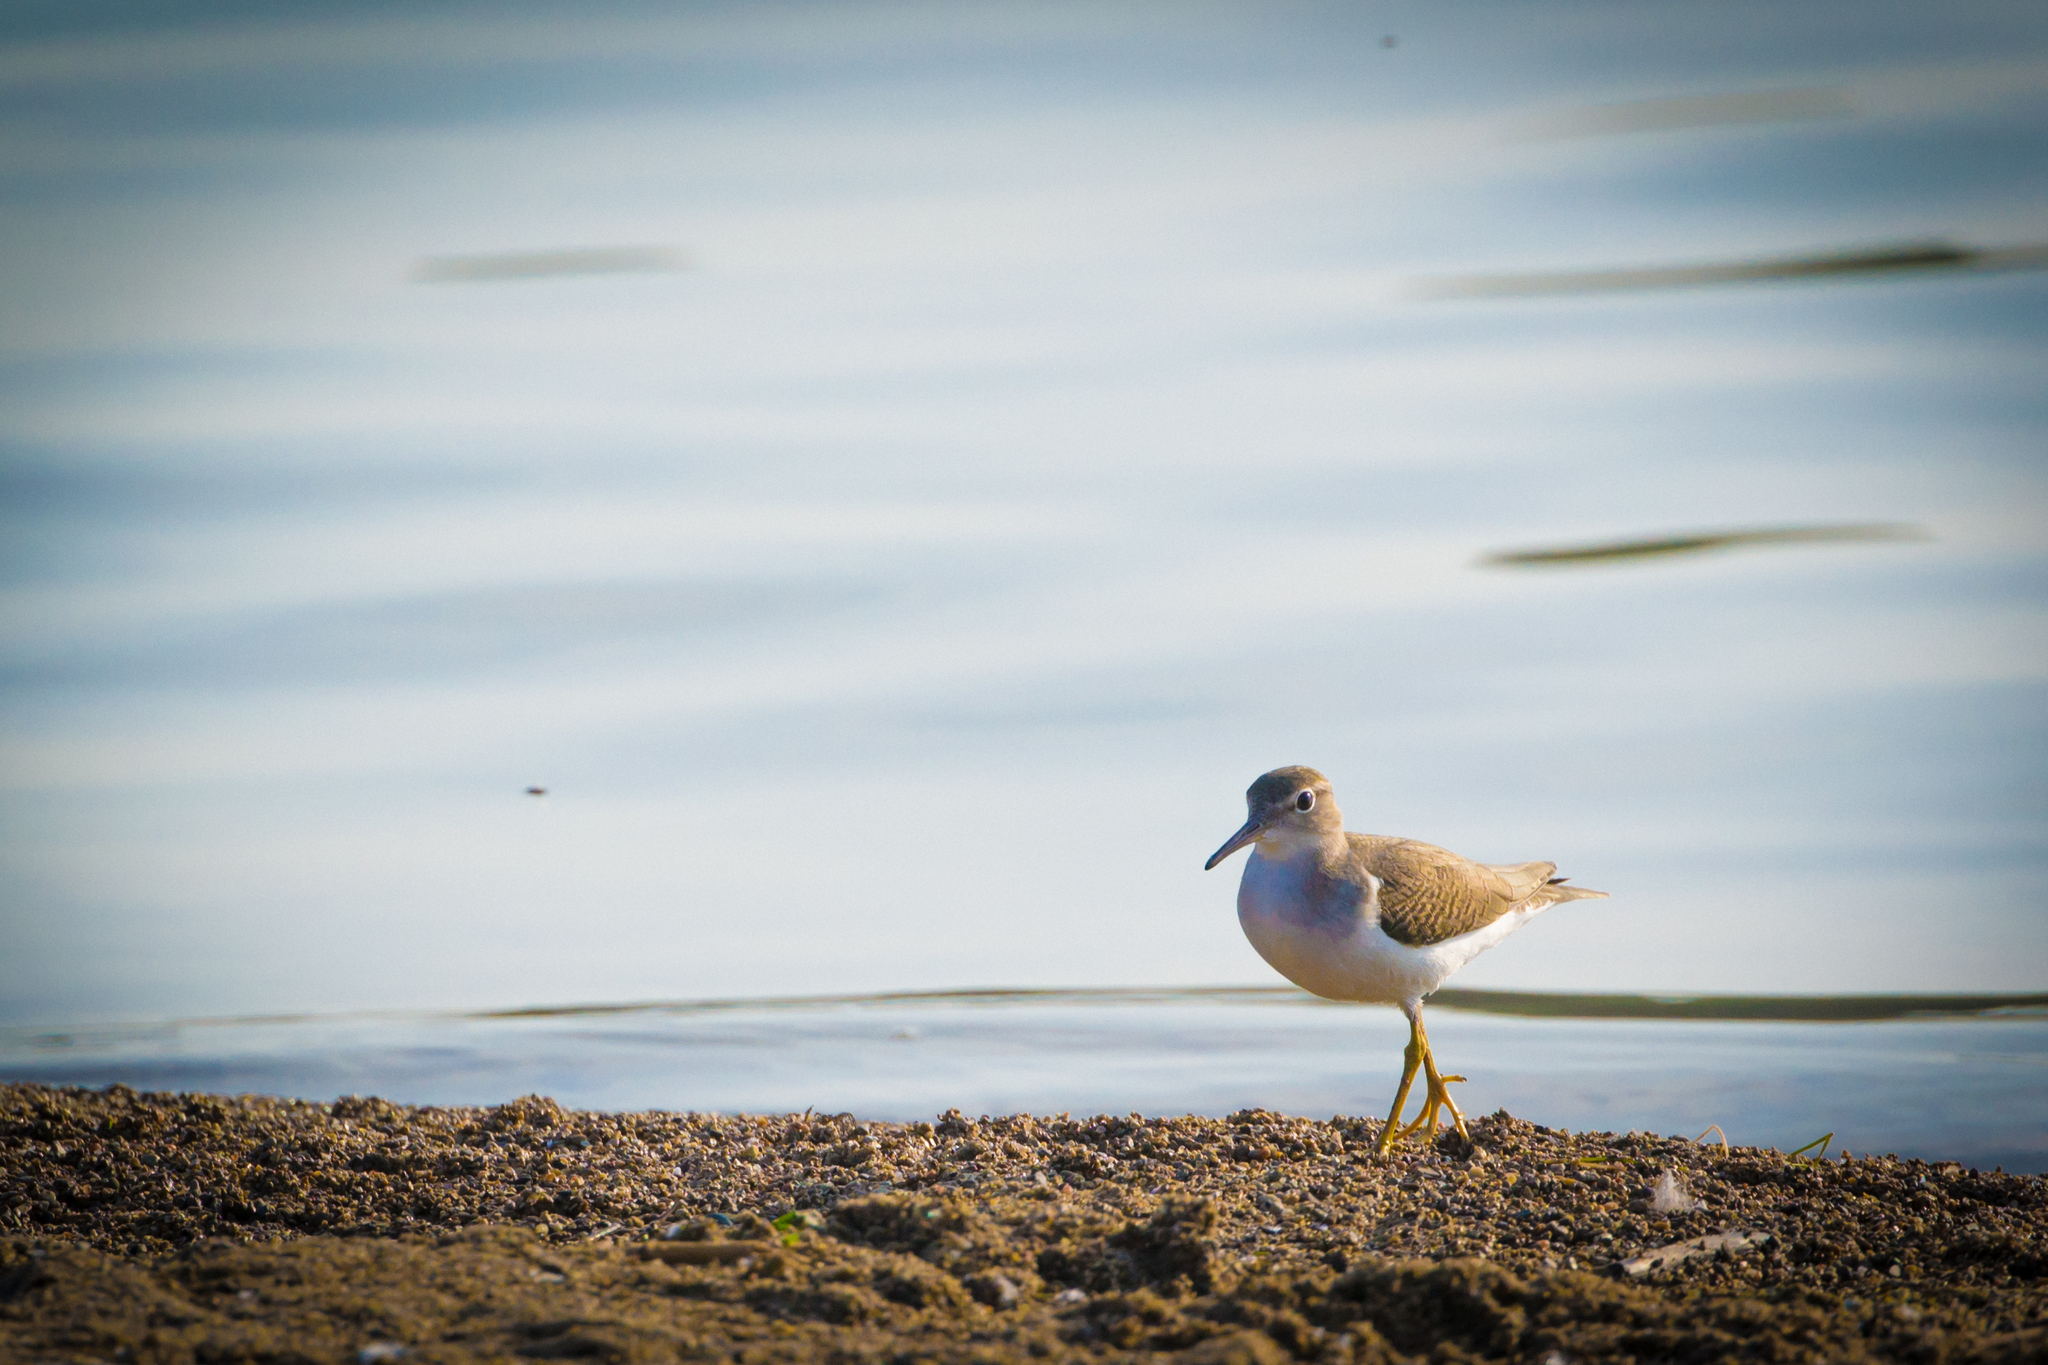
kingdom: Animalia
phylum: Chordata
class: Aves
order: Charadriiformes
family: Scolopacidae
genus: Actitis
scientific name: Actitis macularius
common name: Spotted sandpiper
